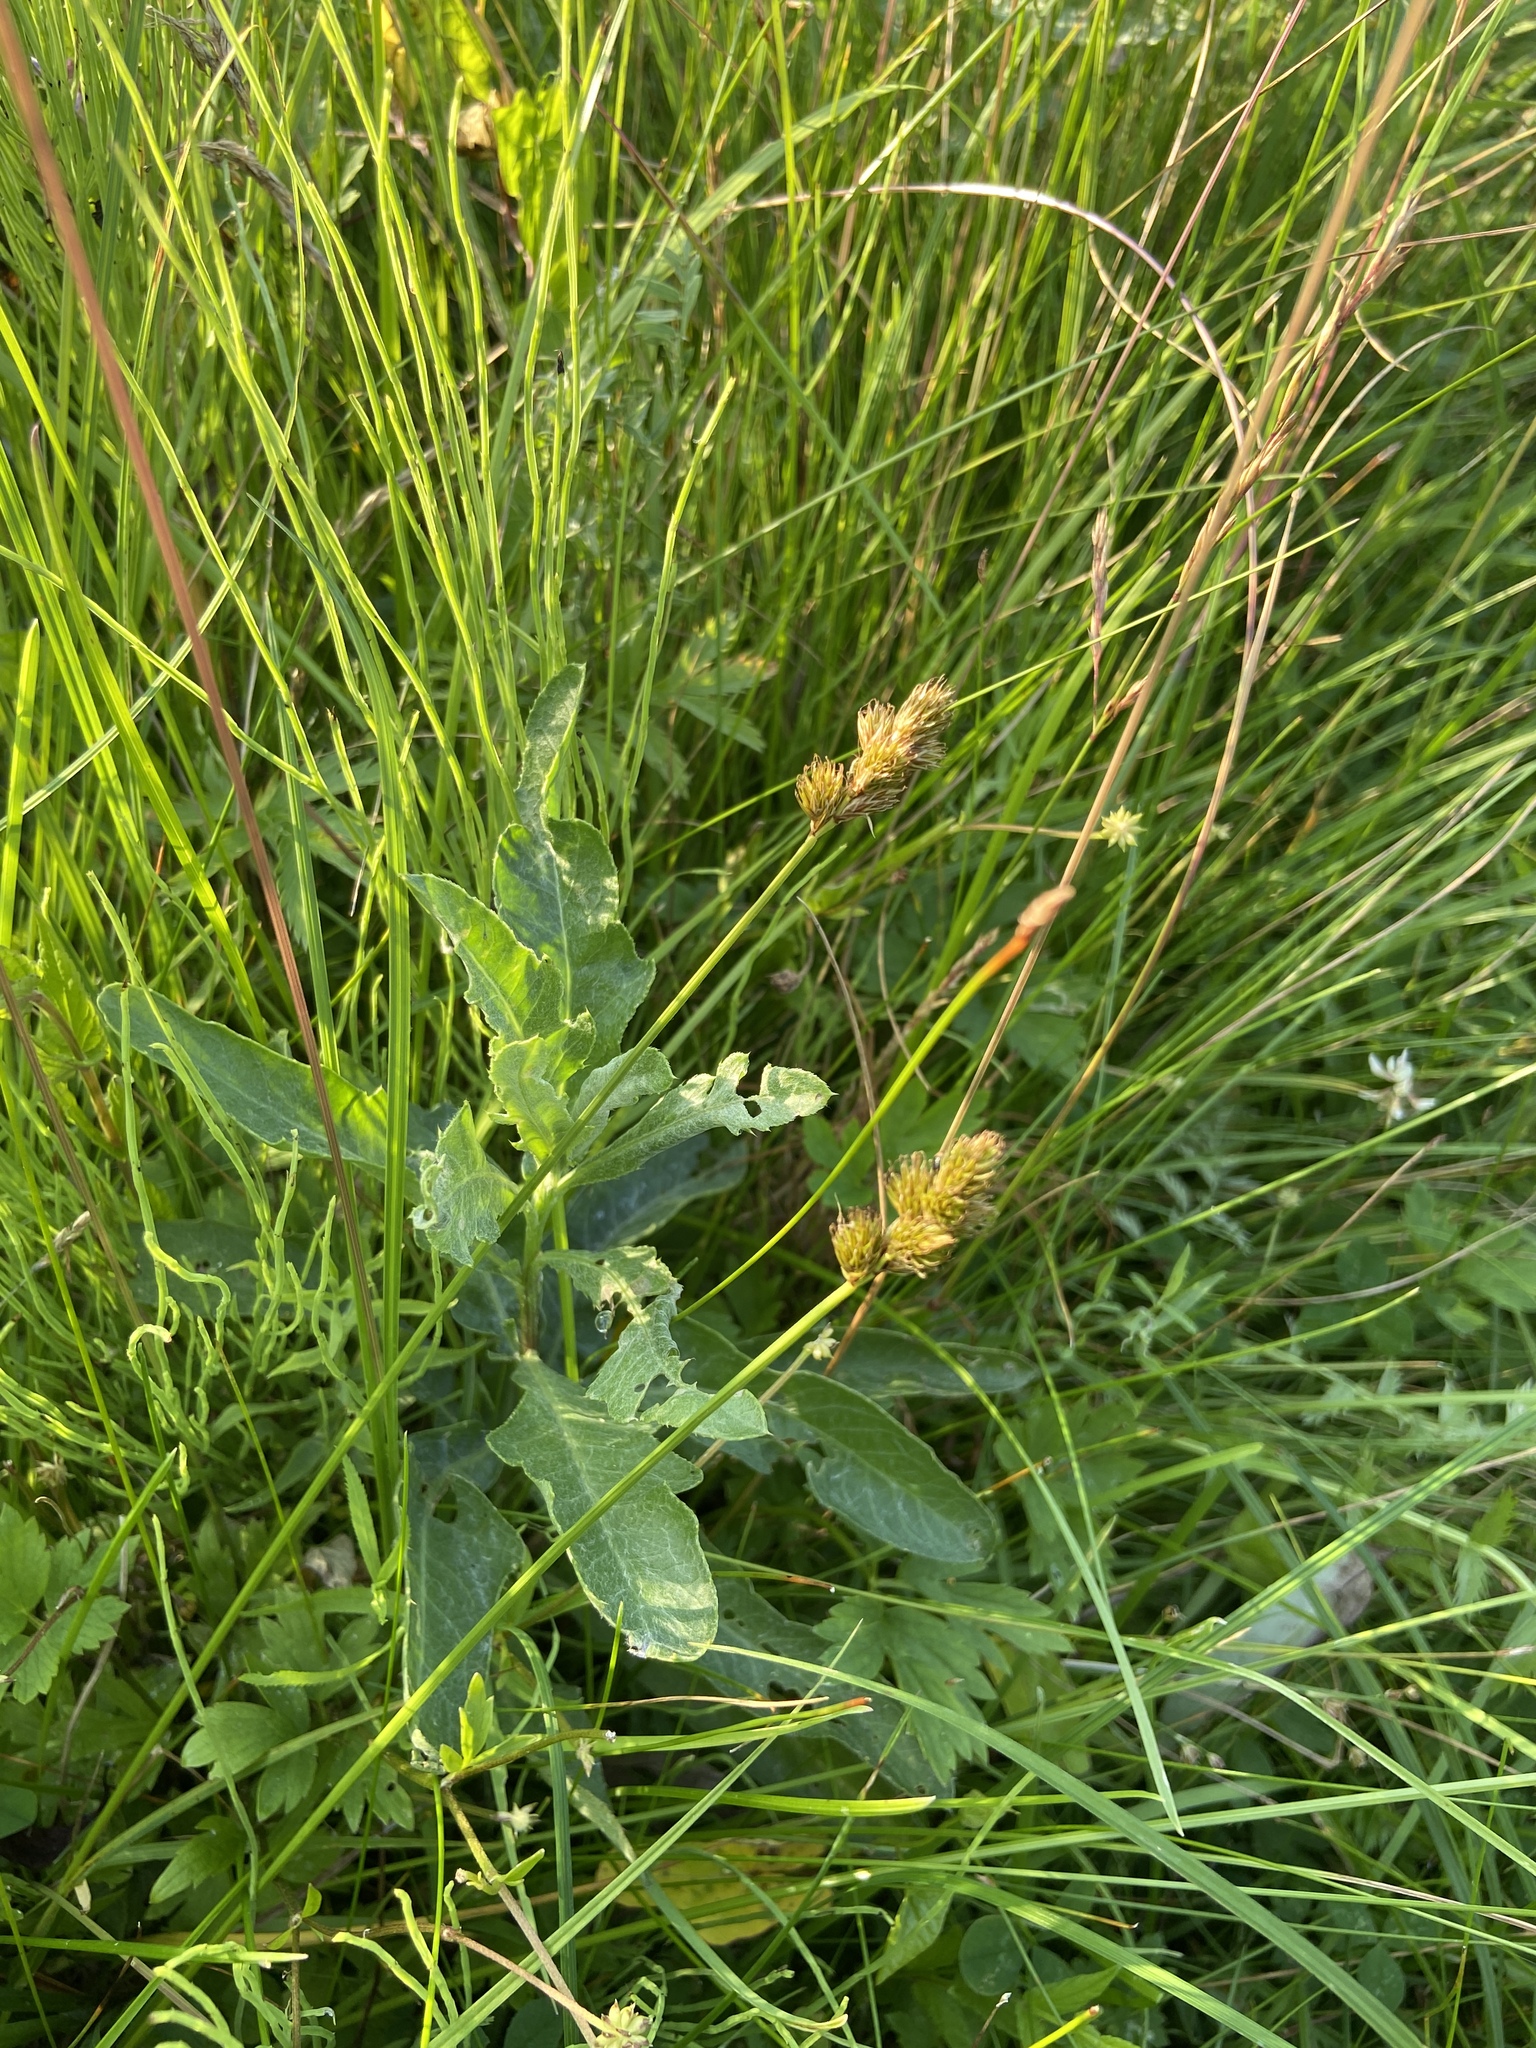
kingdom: Plantae
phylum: Tracheophyta
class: Liliopsida
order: Poales
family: Cyperaceae
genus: Carex
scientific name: Carex leporina
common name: Oval sedge
